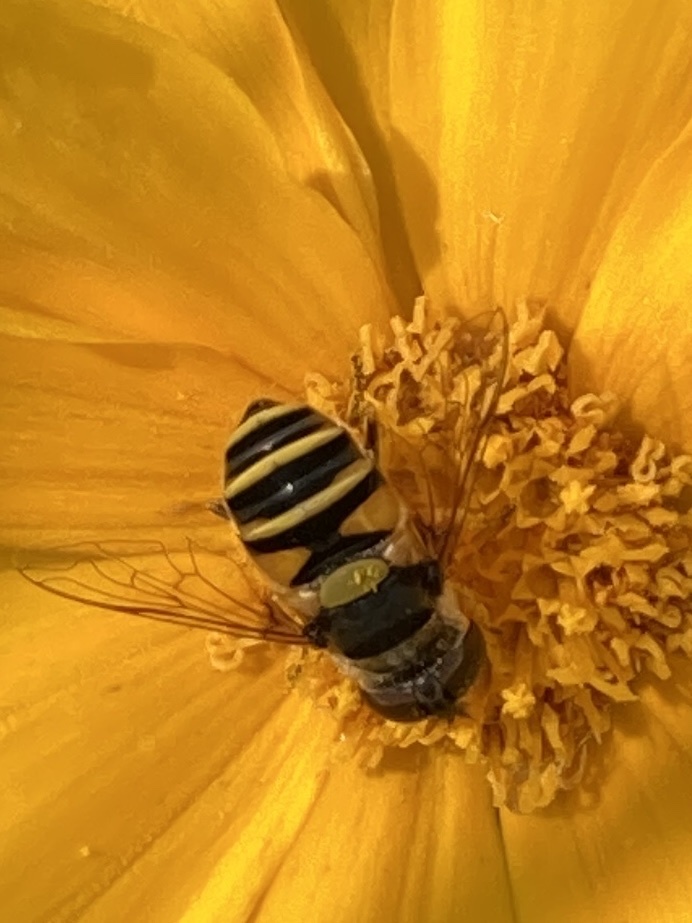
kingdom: Animalia
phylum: Arthropoda
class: Insecta
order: Diptera
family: Syrphidae
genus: Eristalis
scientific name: Eristalis transversa
